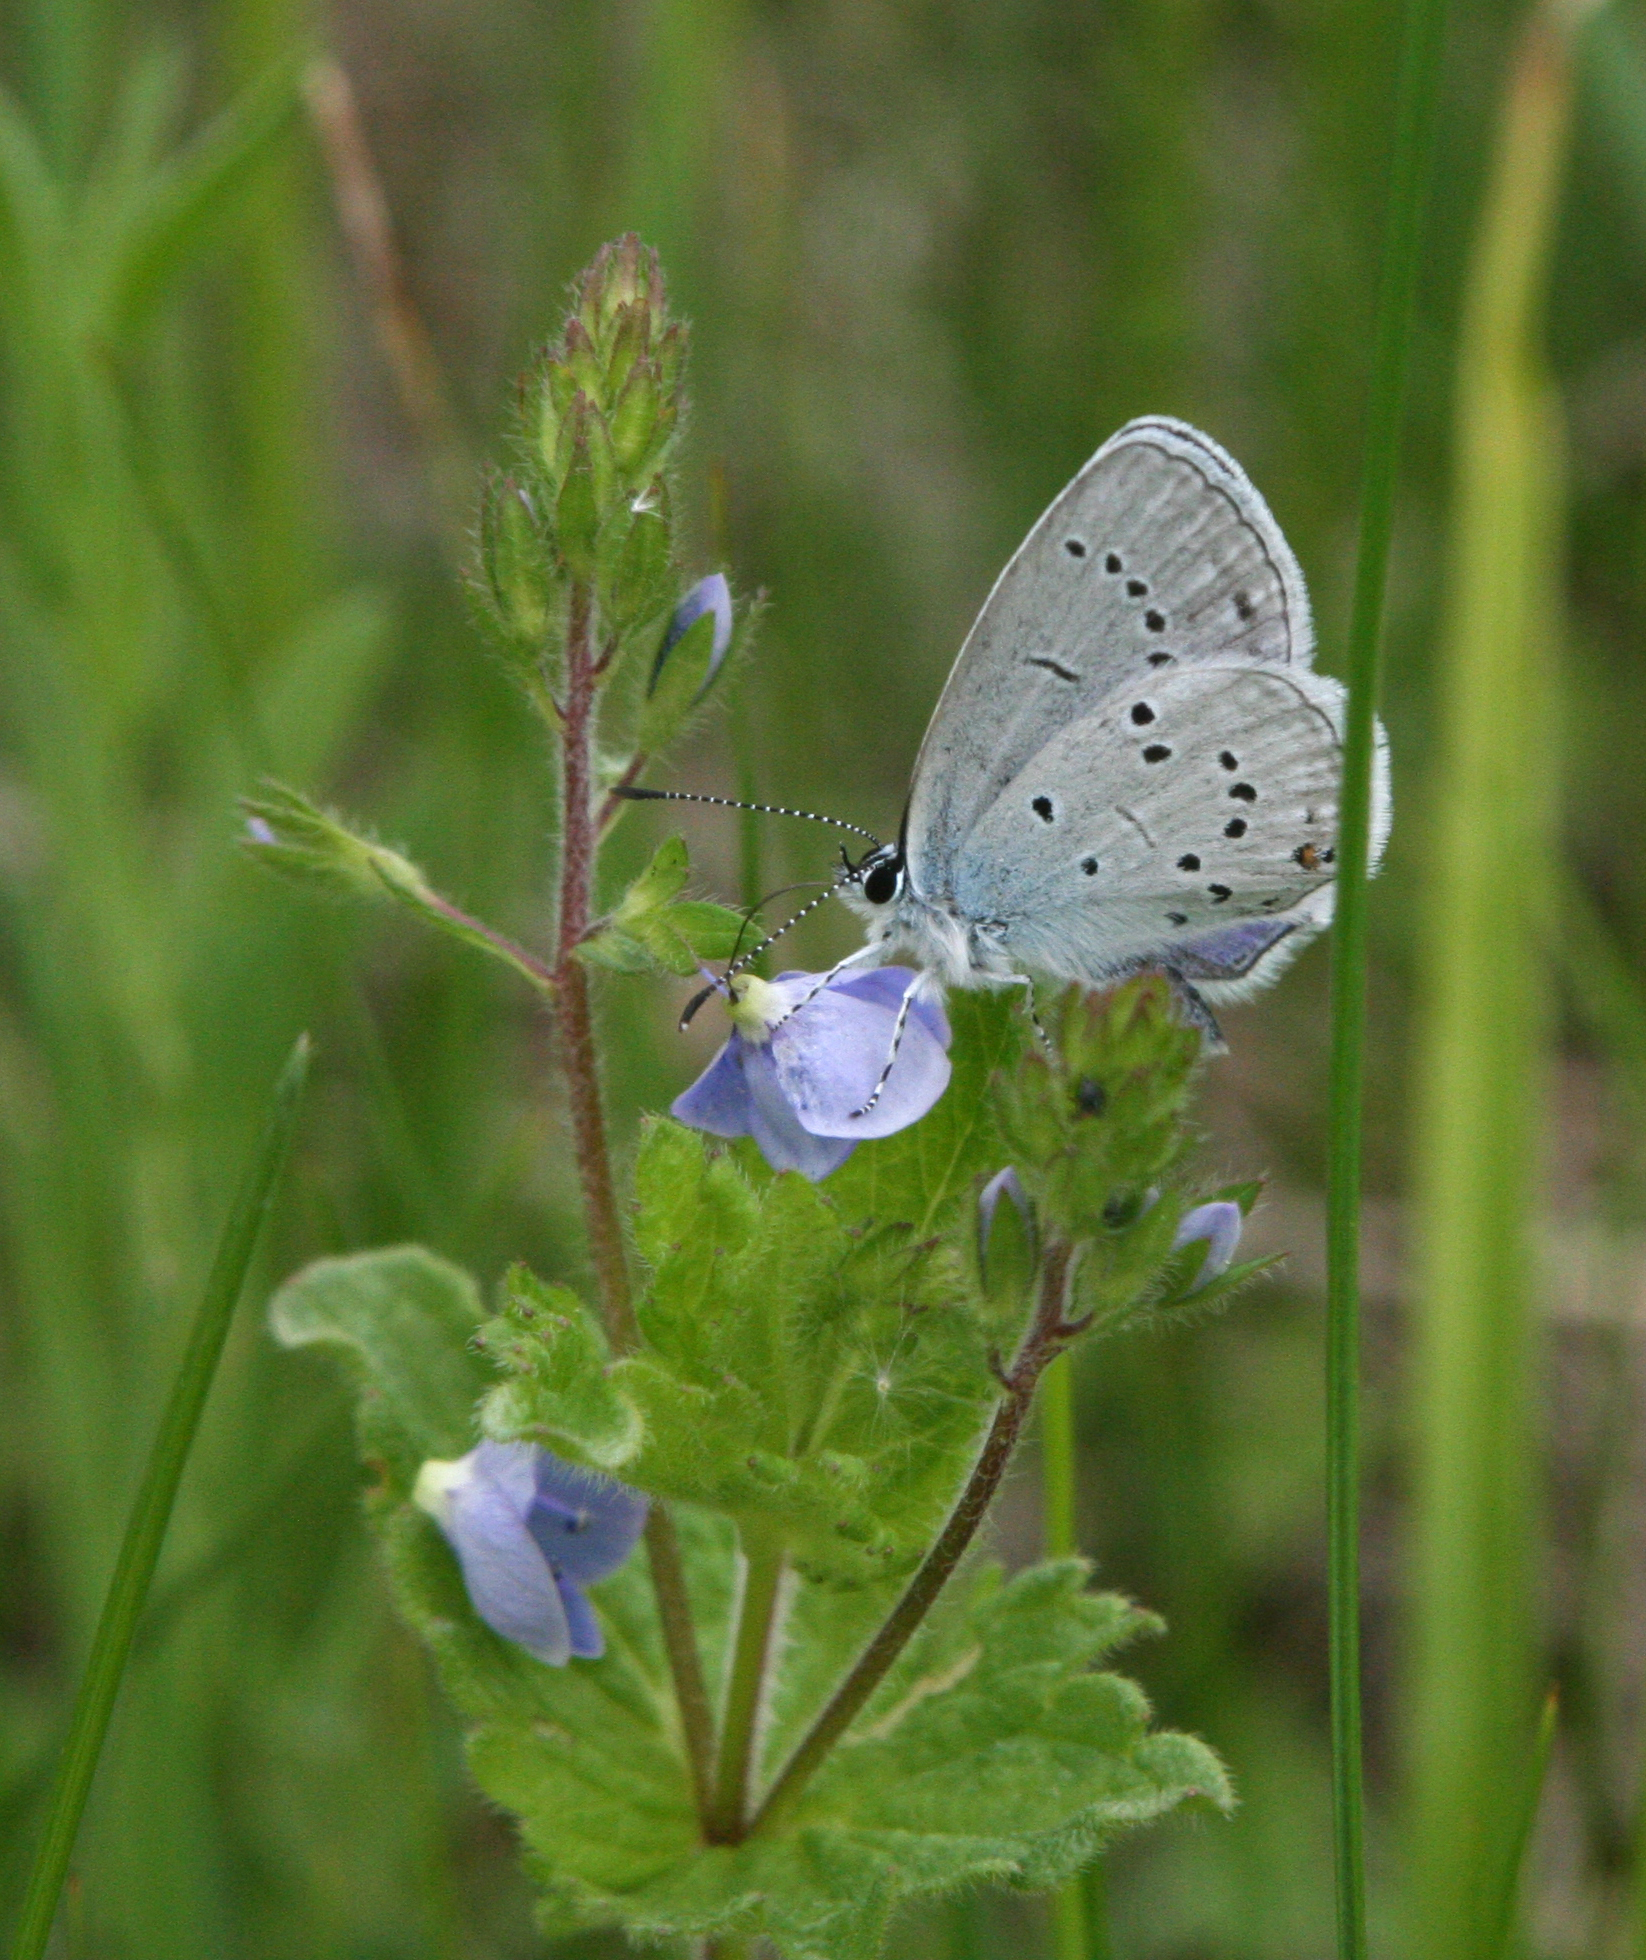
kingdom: Animalia
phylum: Arthropoda
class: Insecta
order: Lepidoptera
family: Lycaenidae
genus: Elkalyce
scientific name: Elkalyce alcetas
